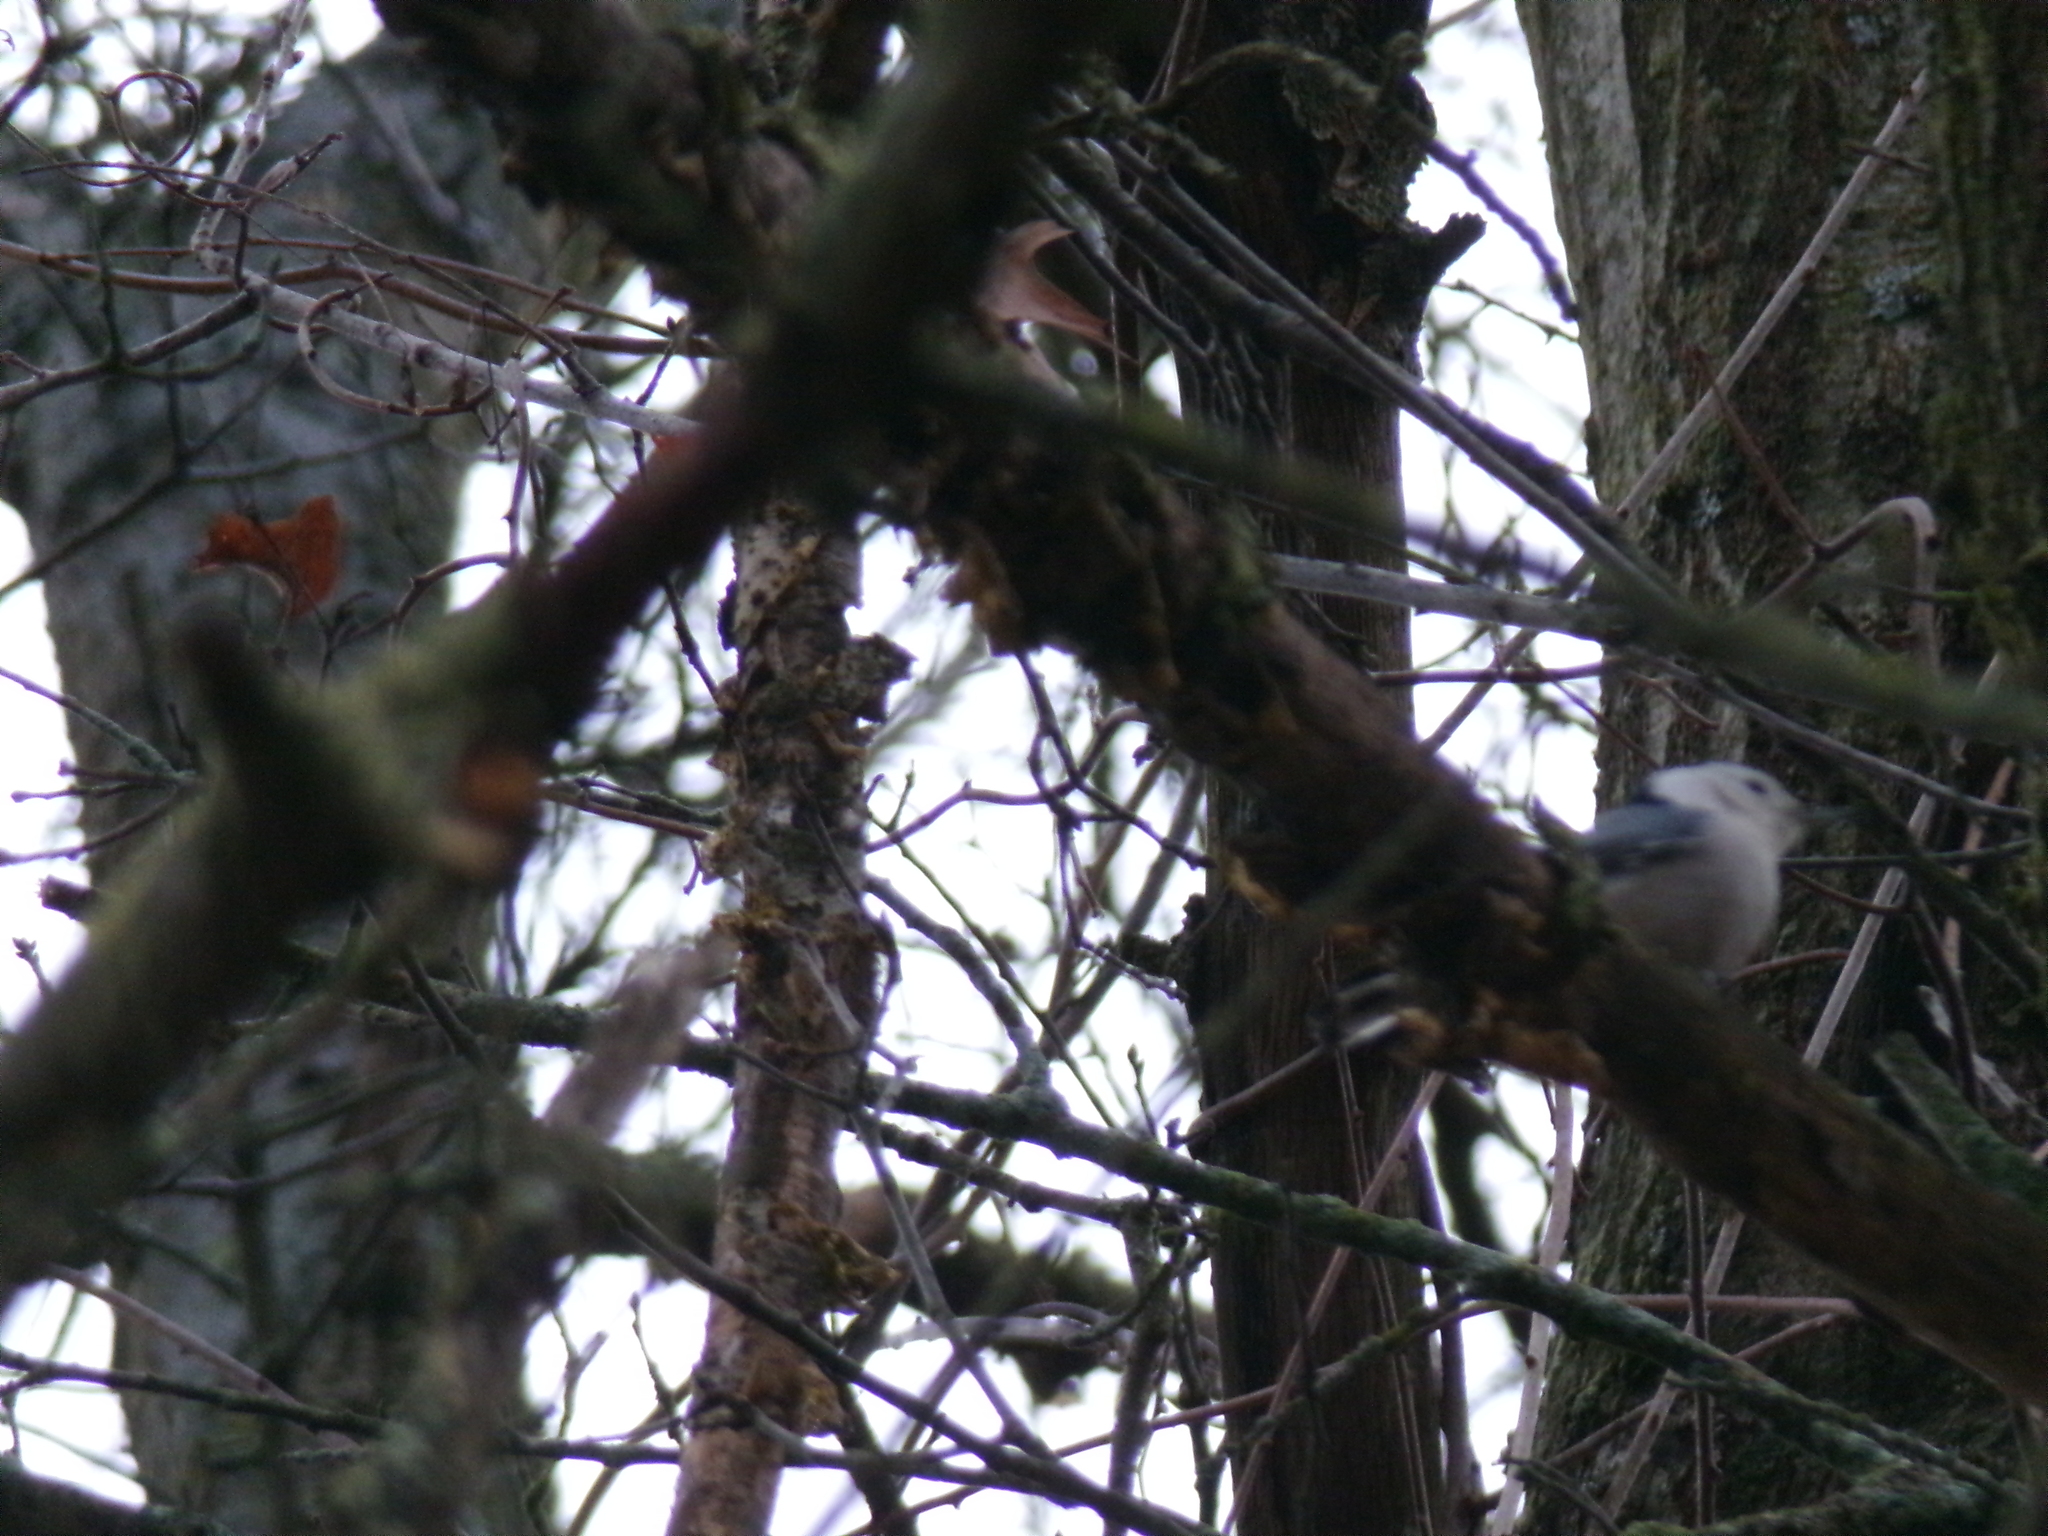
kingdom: Animalia
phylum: Chordata
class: Aves
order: Passeriformes
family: Sittidae
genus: Sitta
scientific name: Sitta carolinensis
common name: White-breasted nuthatch
